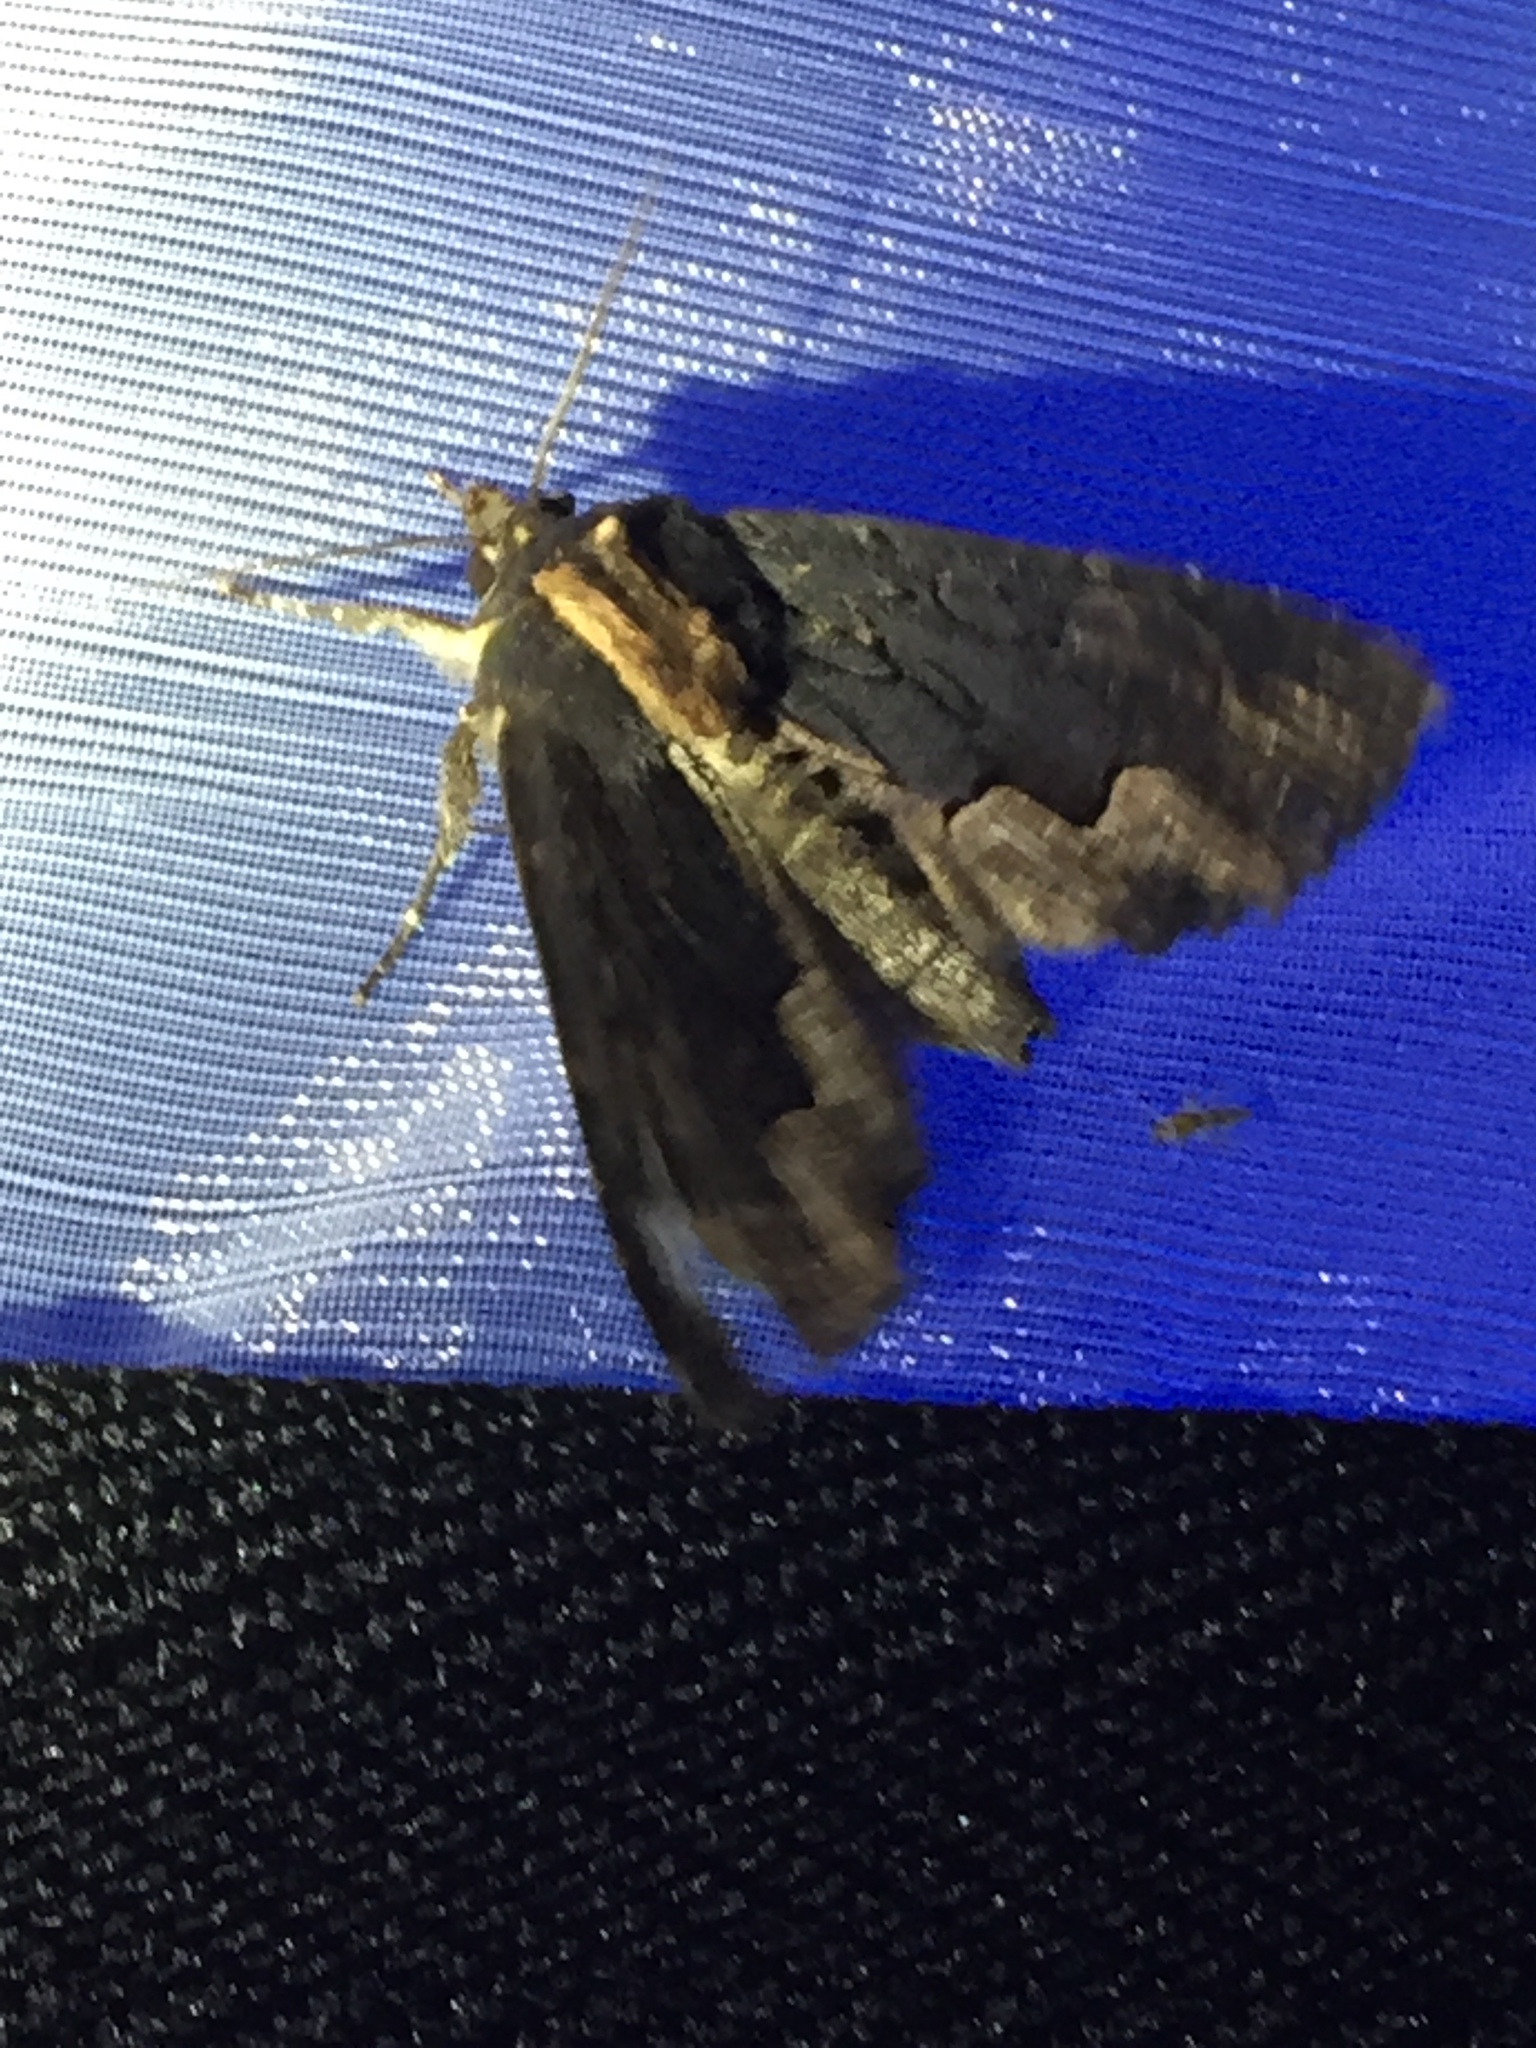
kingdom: Animalia
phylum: Arthropoda
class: Insecta
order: Lepidoptera
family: Noctuidae
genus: Dypterygia
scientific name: Dypterygia scabriuscula
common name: Bird's wing
